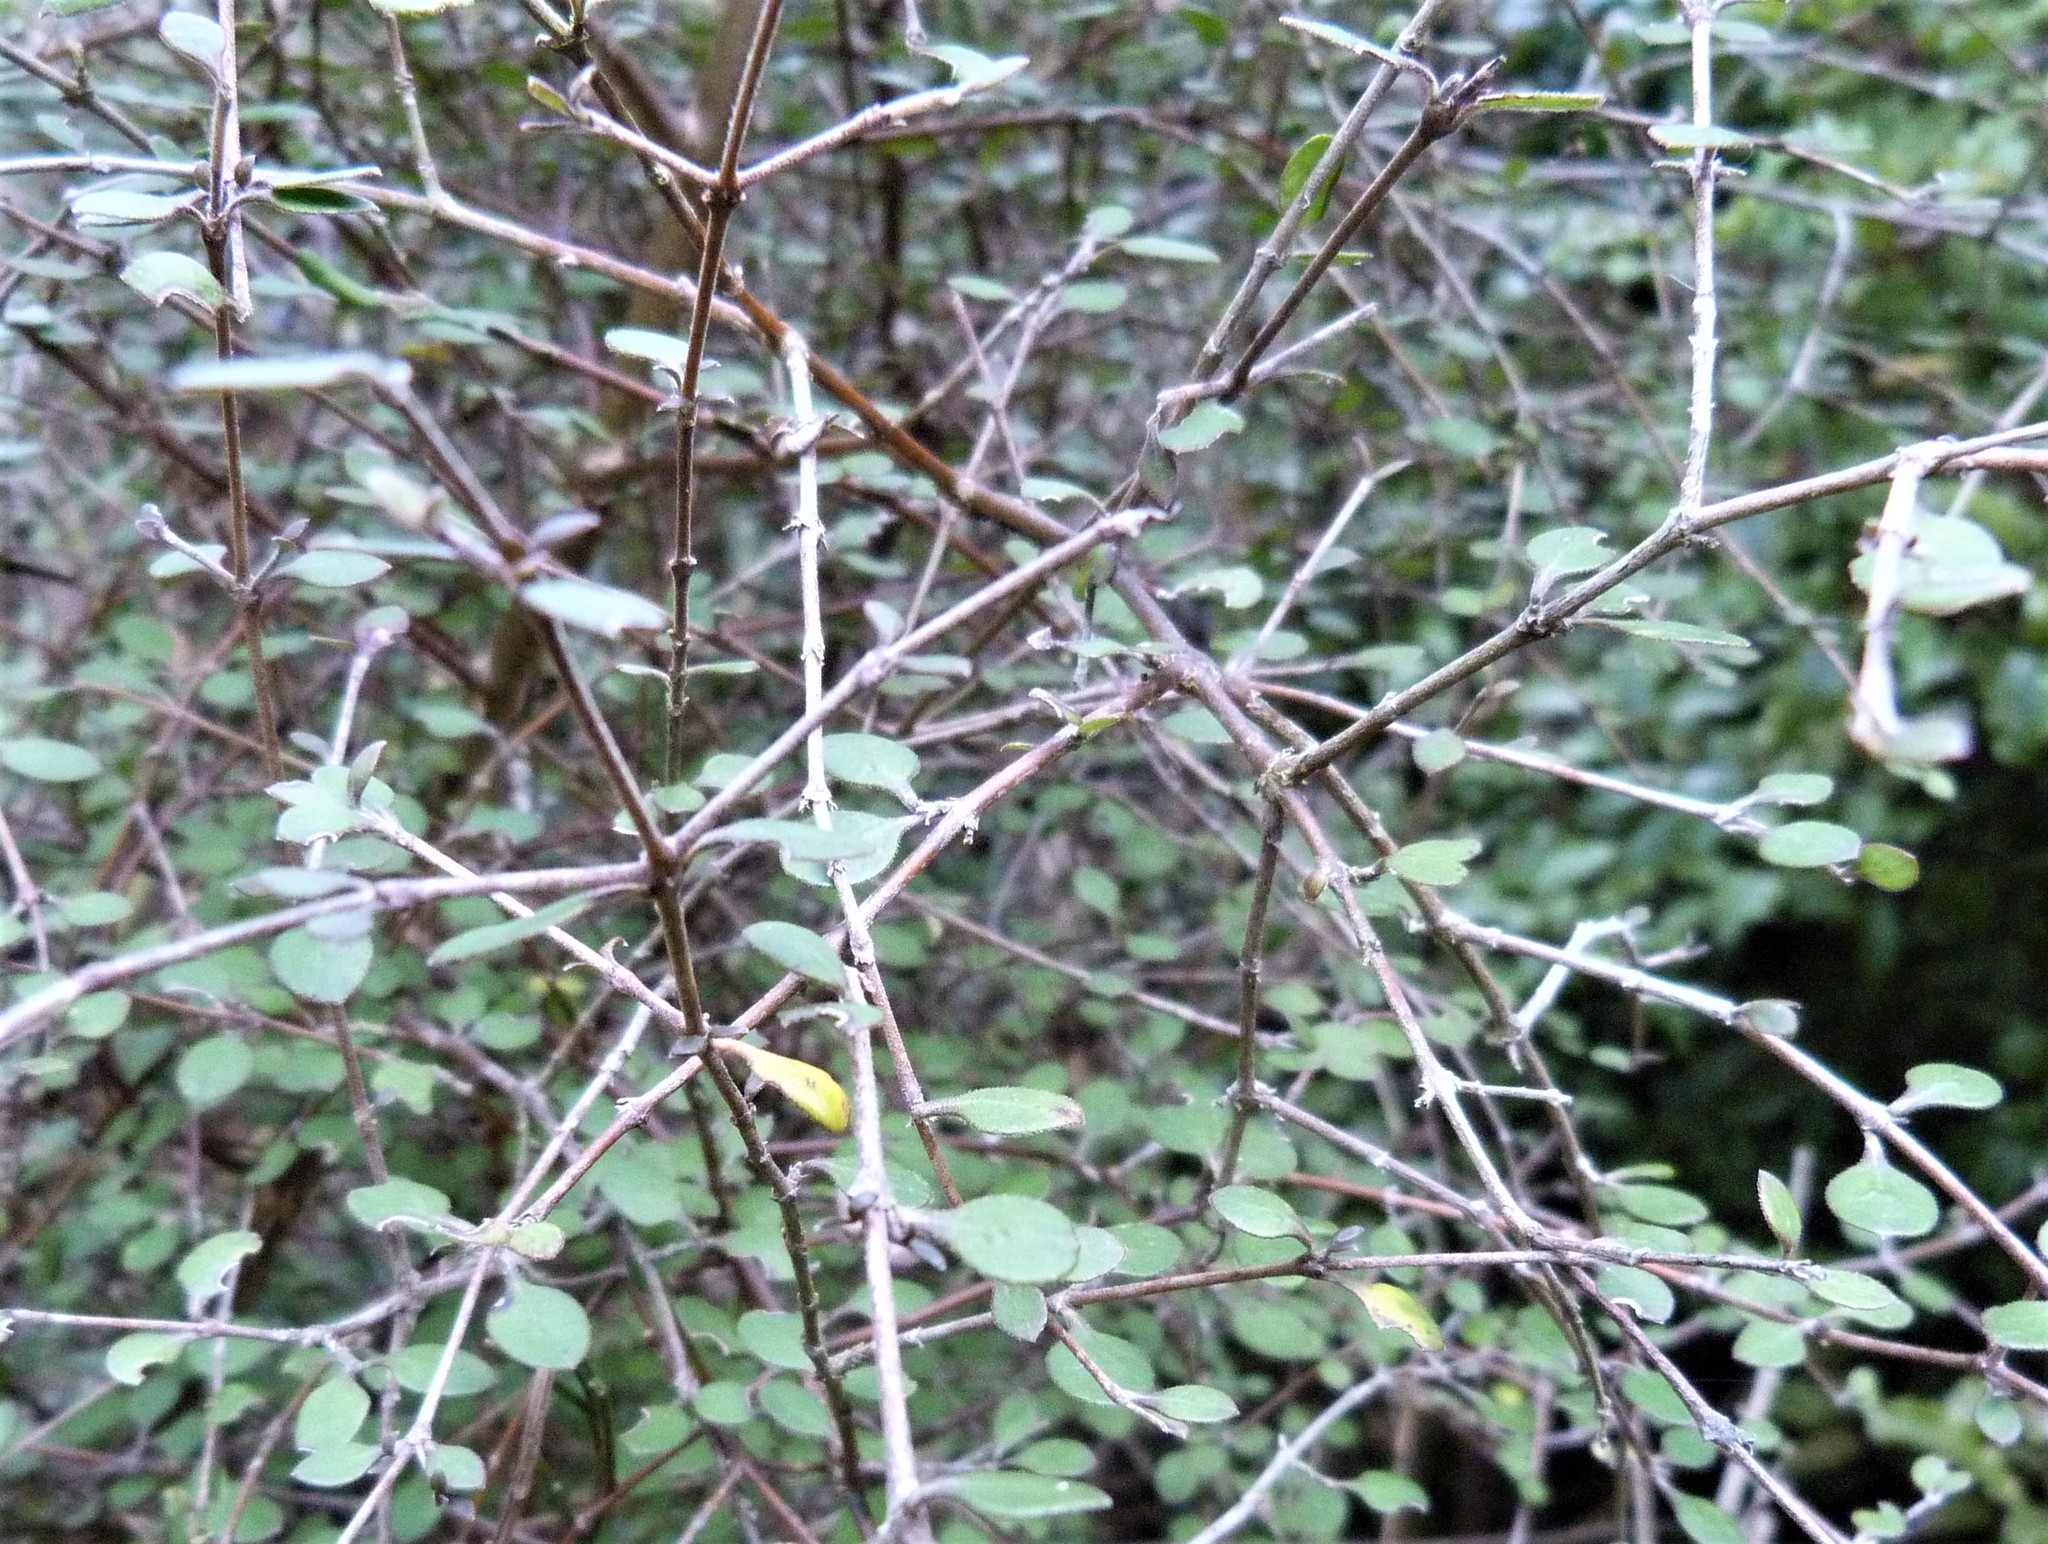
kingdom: Plantae
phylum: Tracheophyta
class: Magnoliopsida
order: Gentianales
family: Rubiaceae
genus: Coprosma
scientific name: Coprosma rubra
